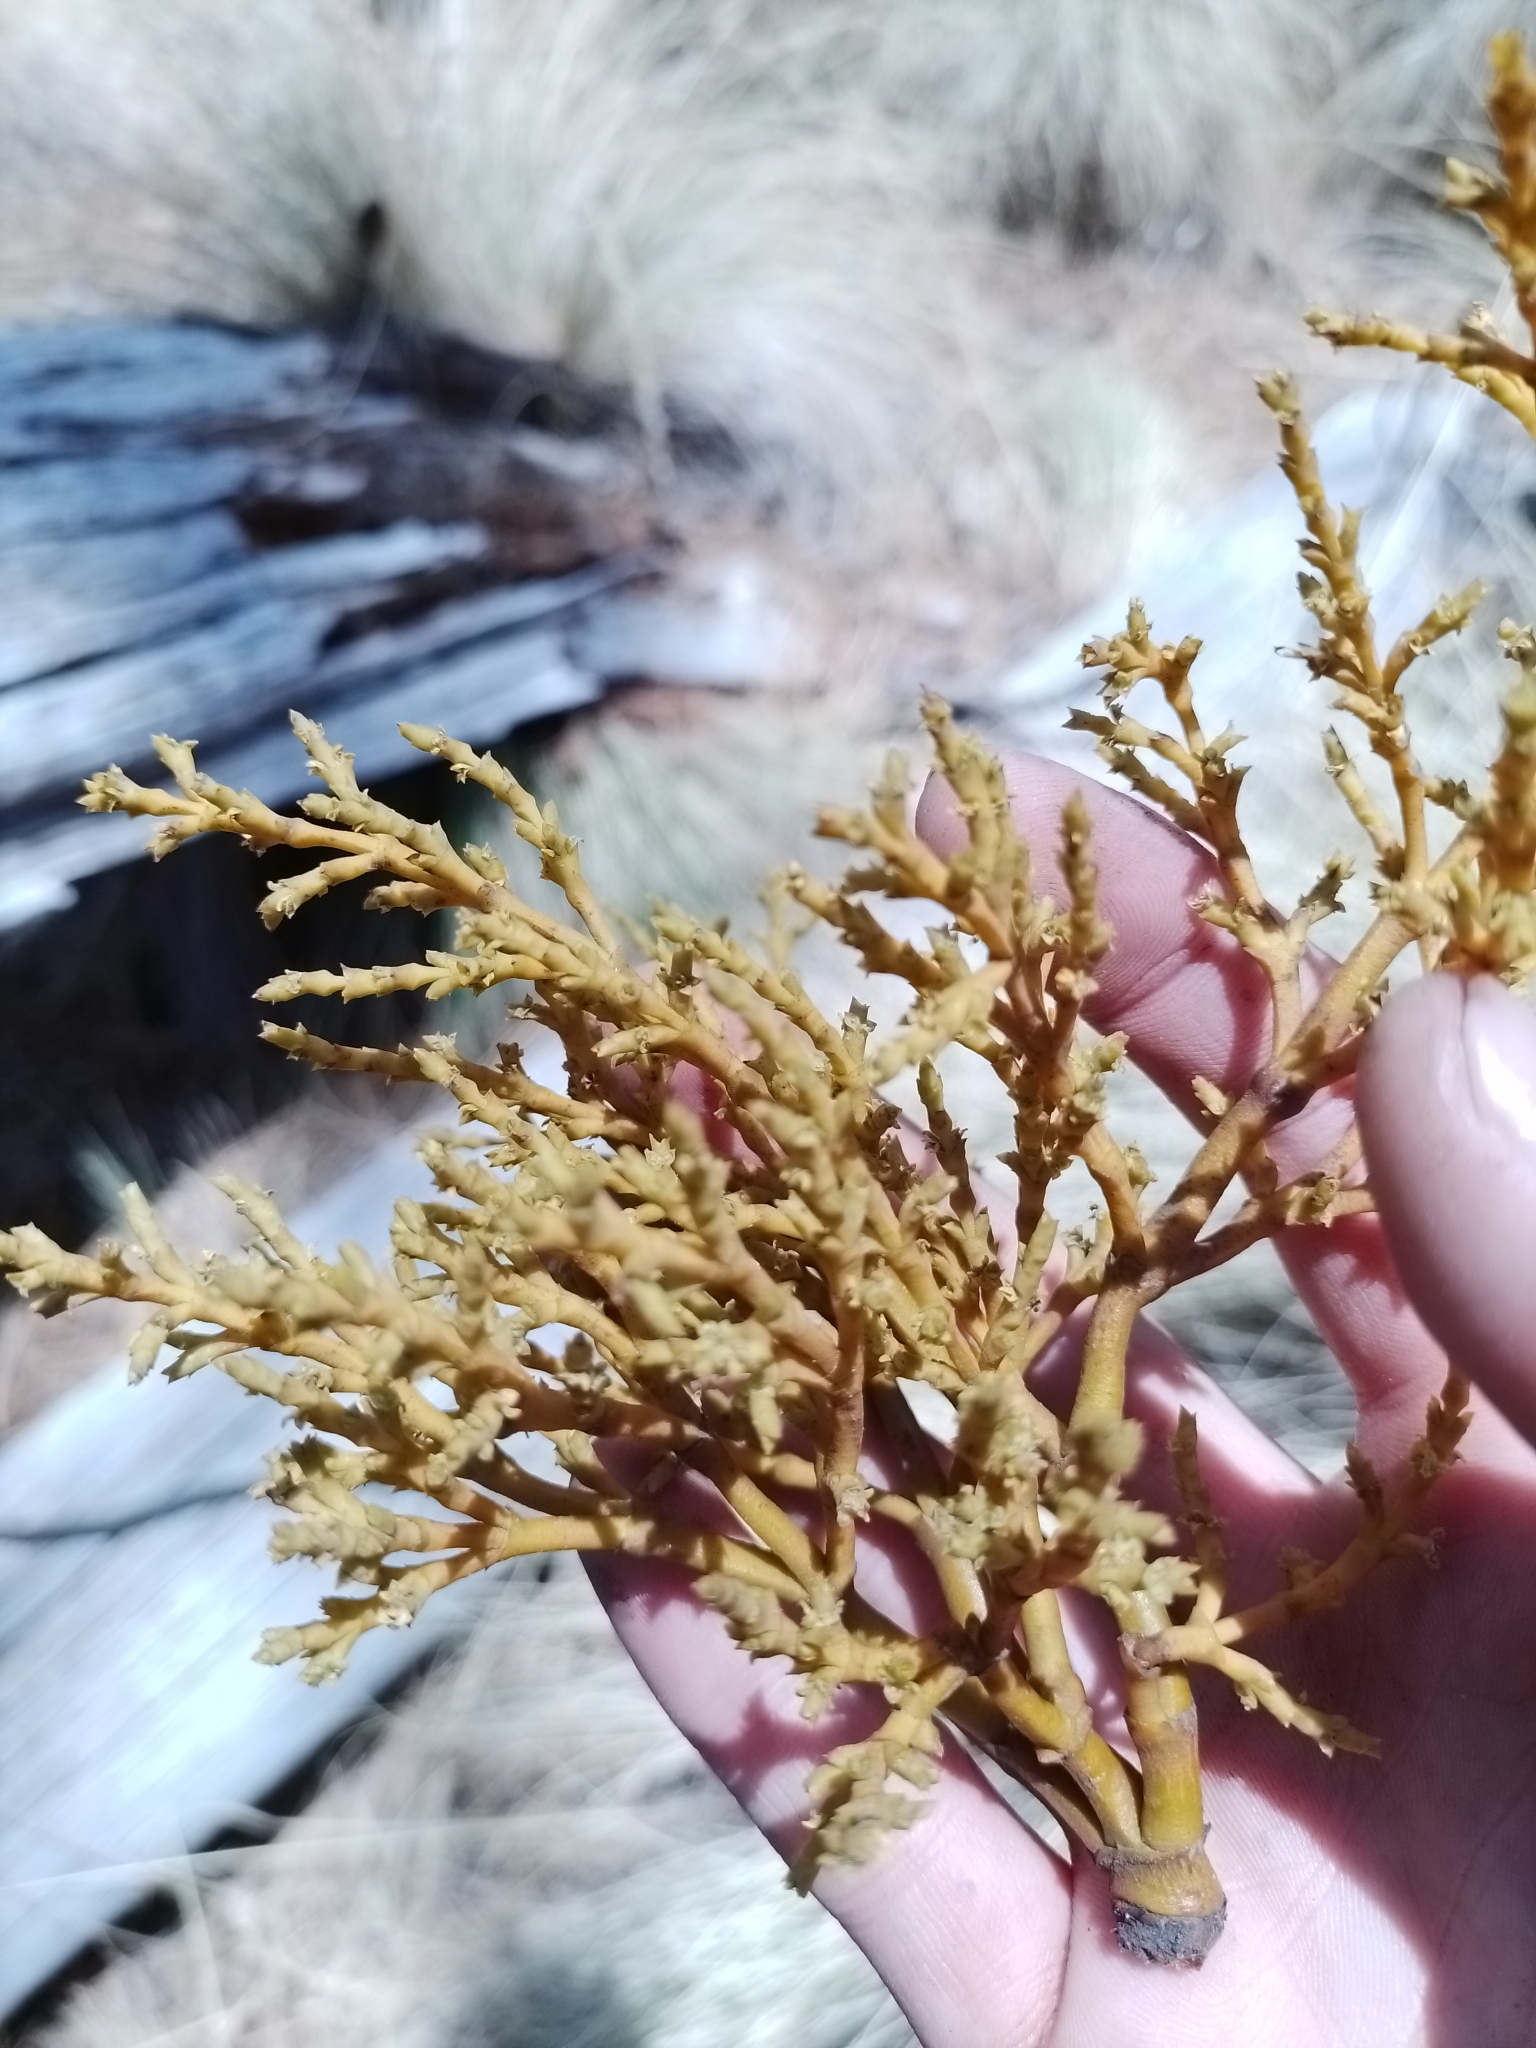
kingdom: Plantae
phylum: Tracheophyta
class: Magnoliopsida
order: Santalales
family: Viscaceae
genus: Arceuthobium
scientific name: Arceuthobium globosum
